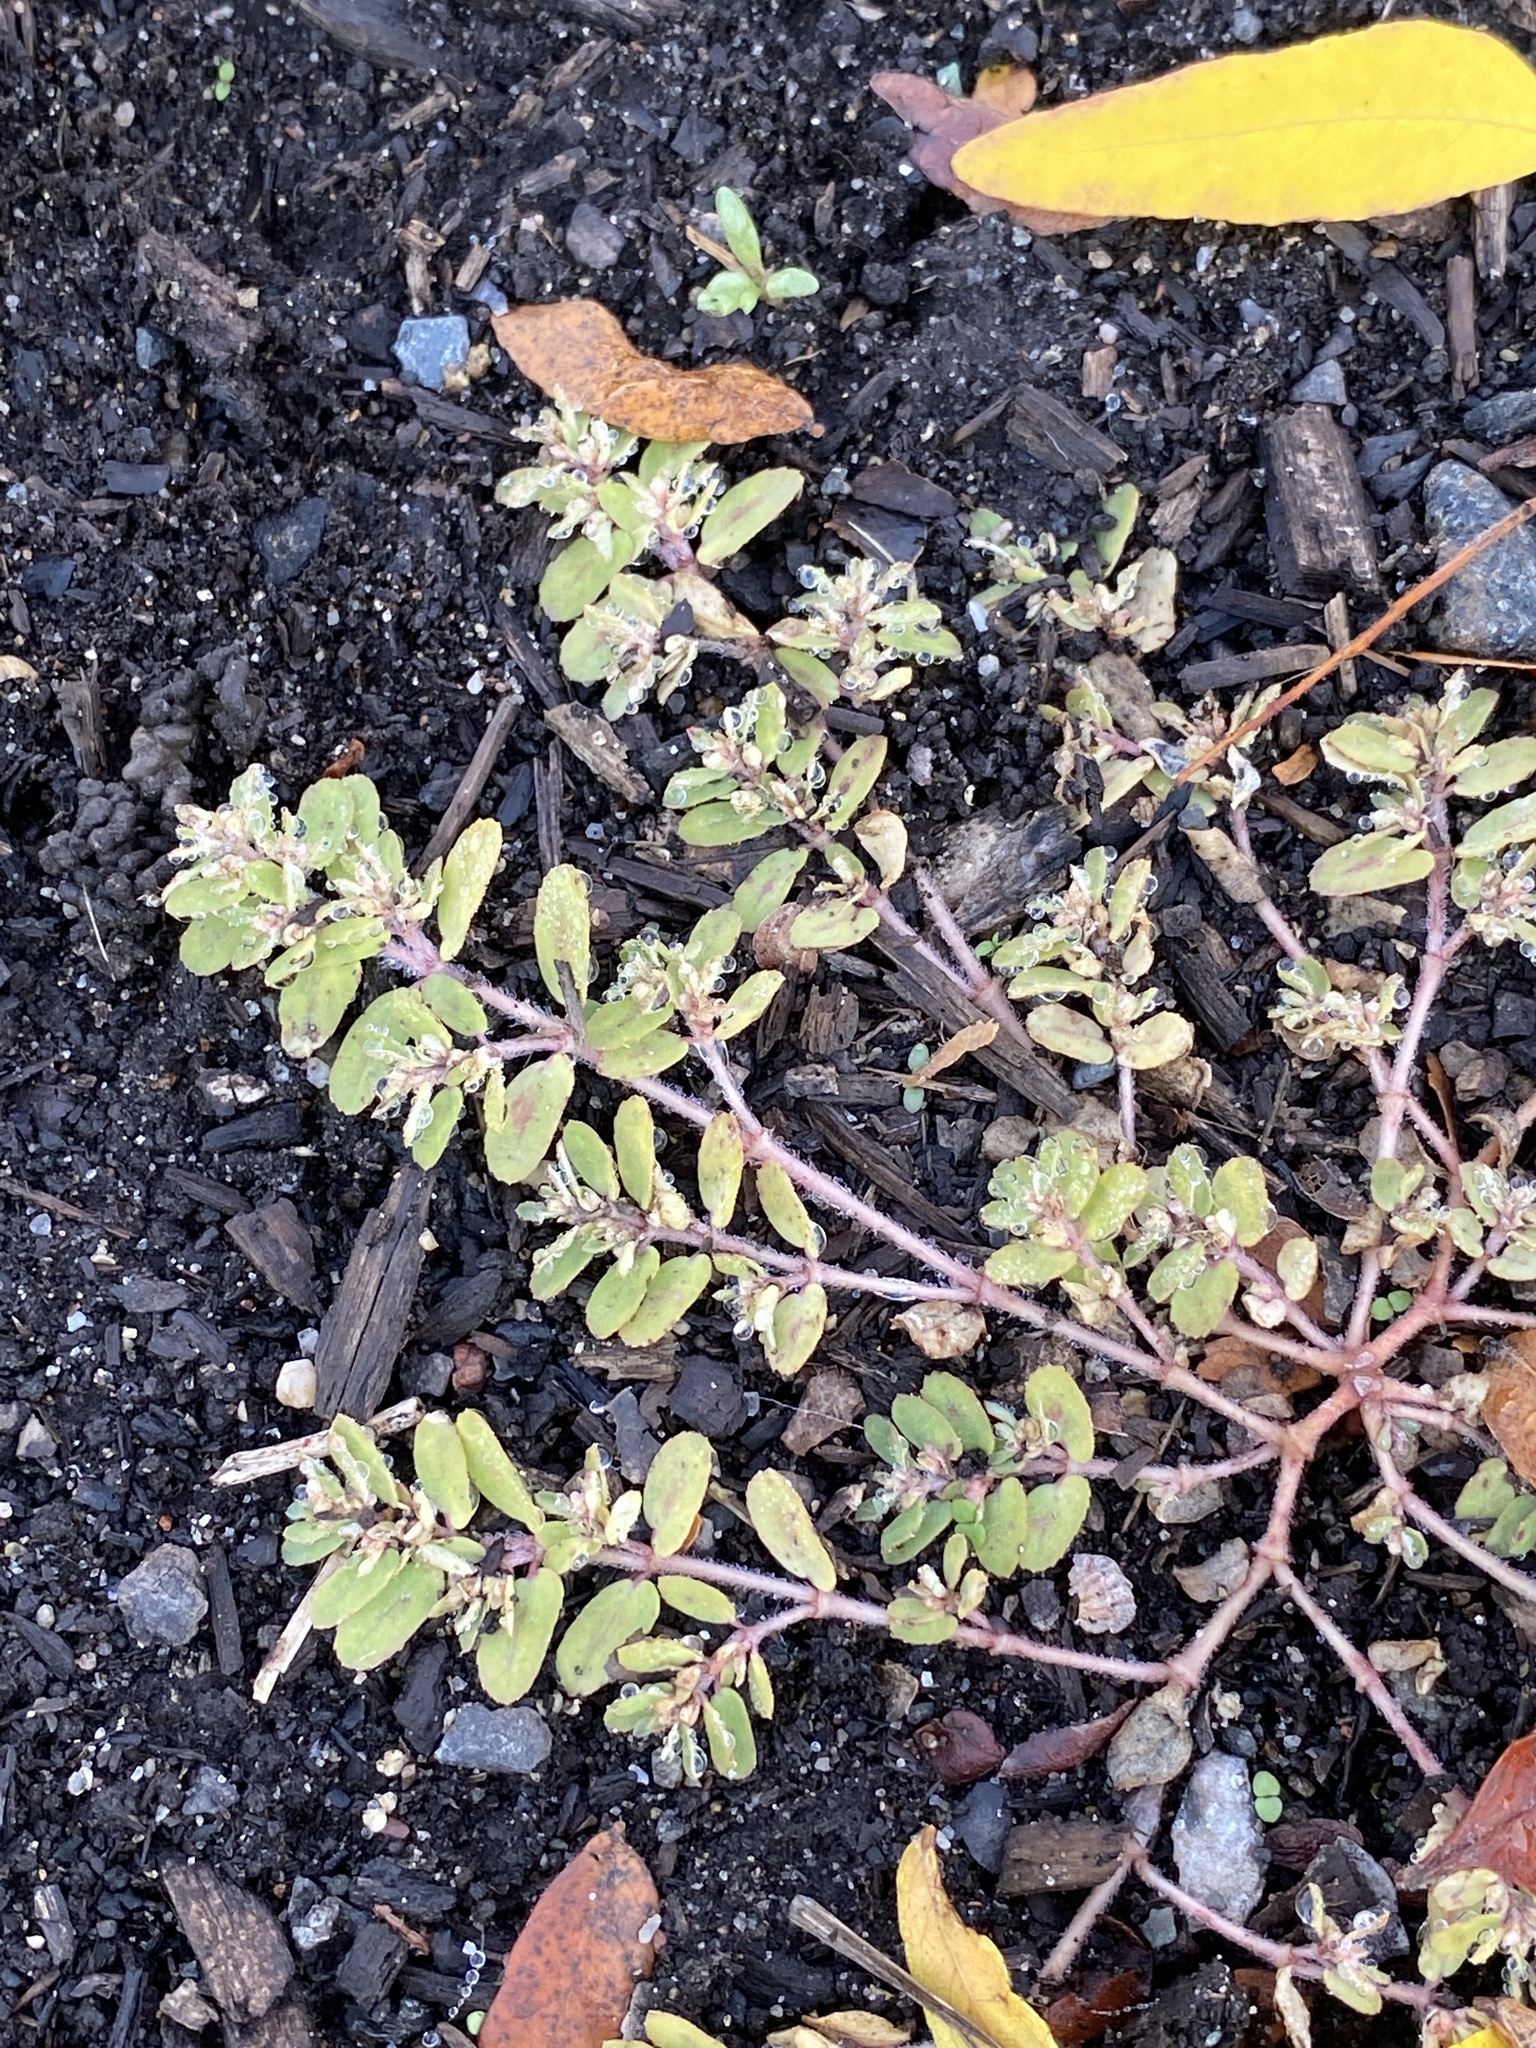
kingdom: Plantae
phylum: Tracheophyta
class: Magnoliopsida
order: Malpighiales
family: Euphorbiaceae
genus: Euphorbia
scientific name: Euphorbia maculata
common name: Spotted spurge
